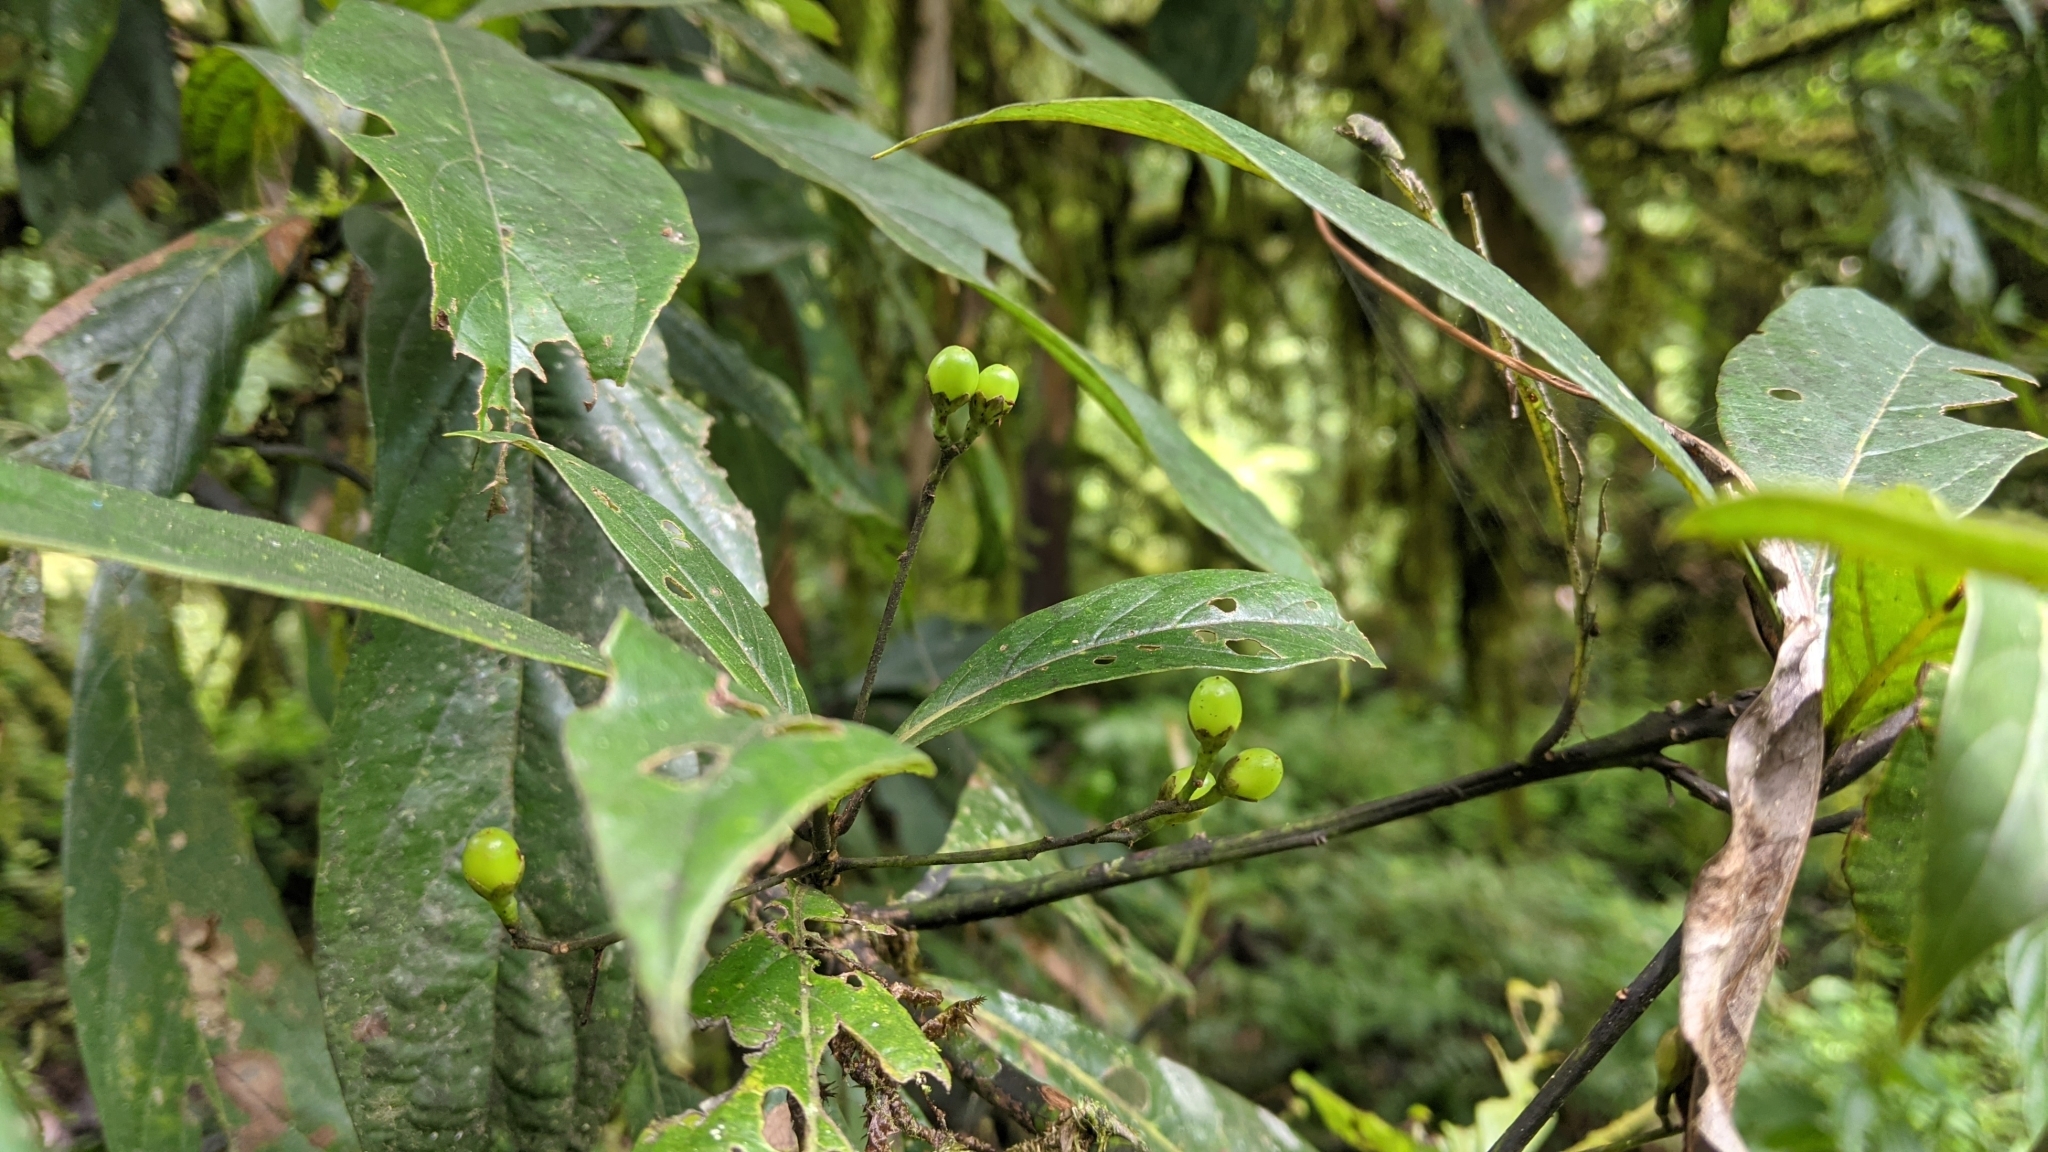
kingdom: Plantae
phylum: Tracheophyta
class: Magnoliopsida
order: Laurales
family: Lauraceae
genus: Phoebe
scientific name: Phoebe formosana
